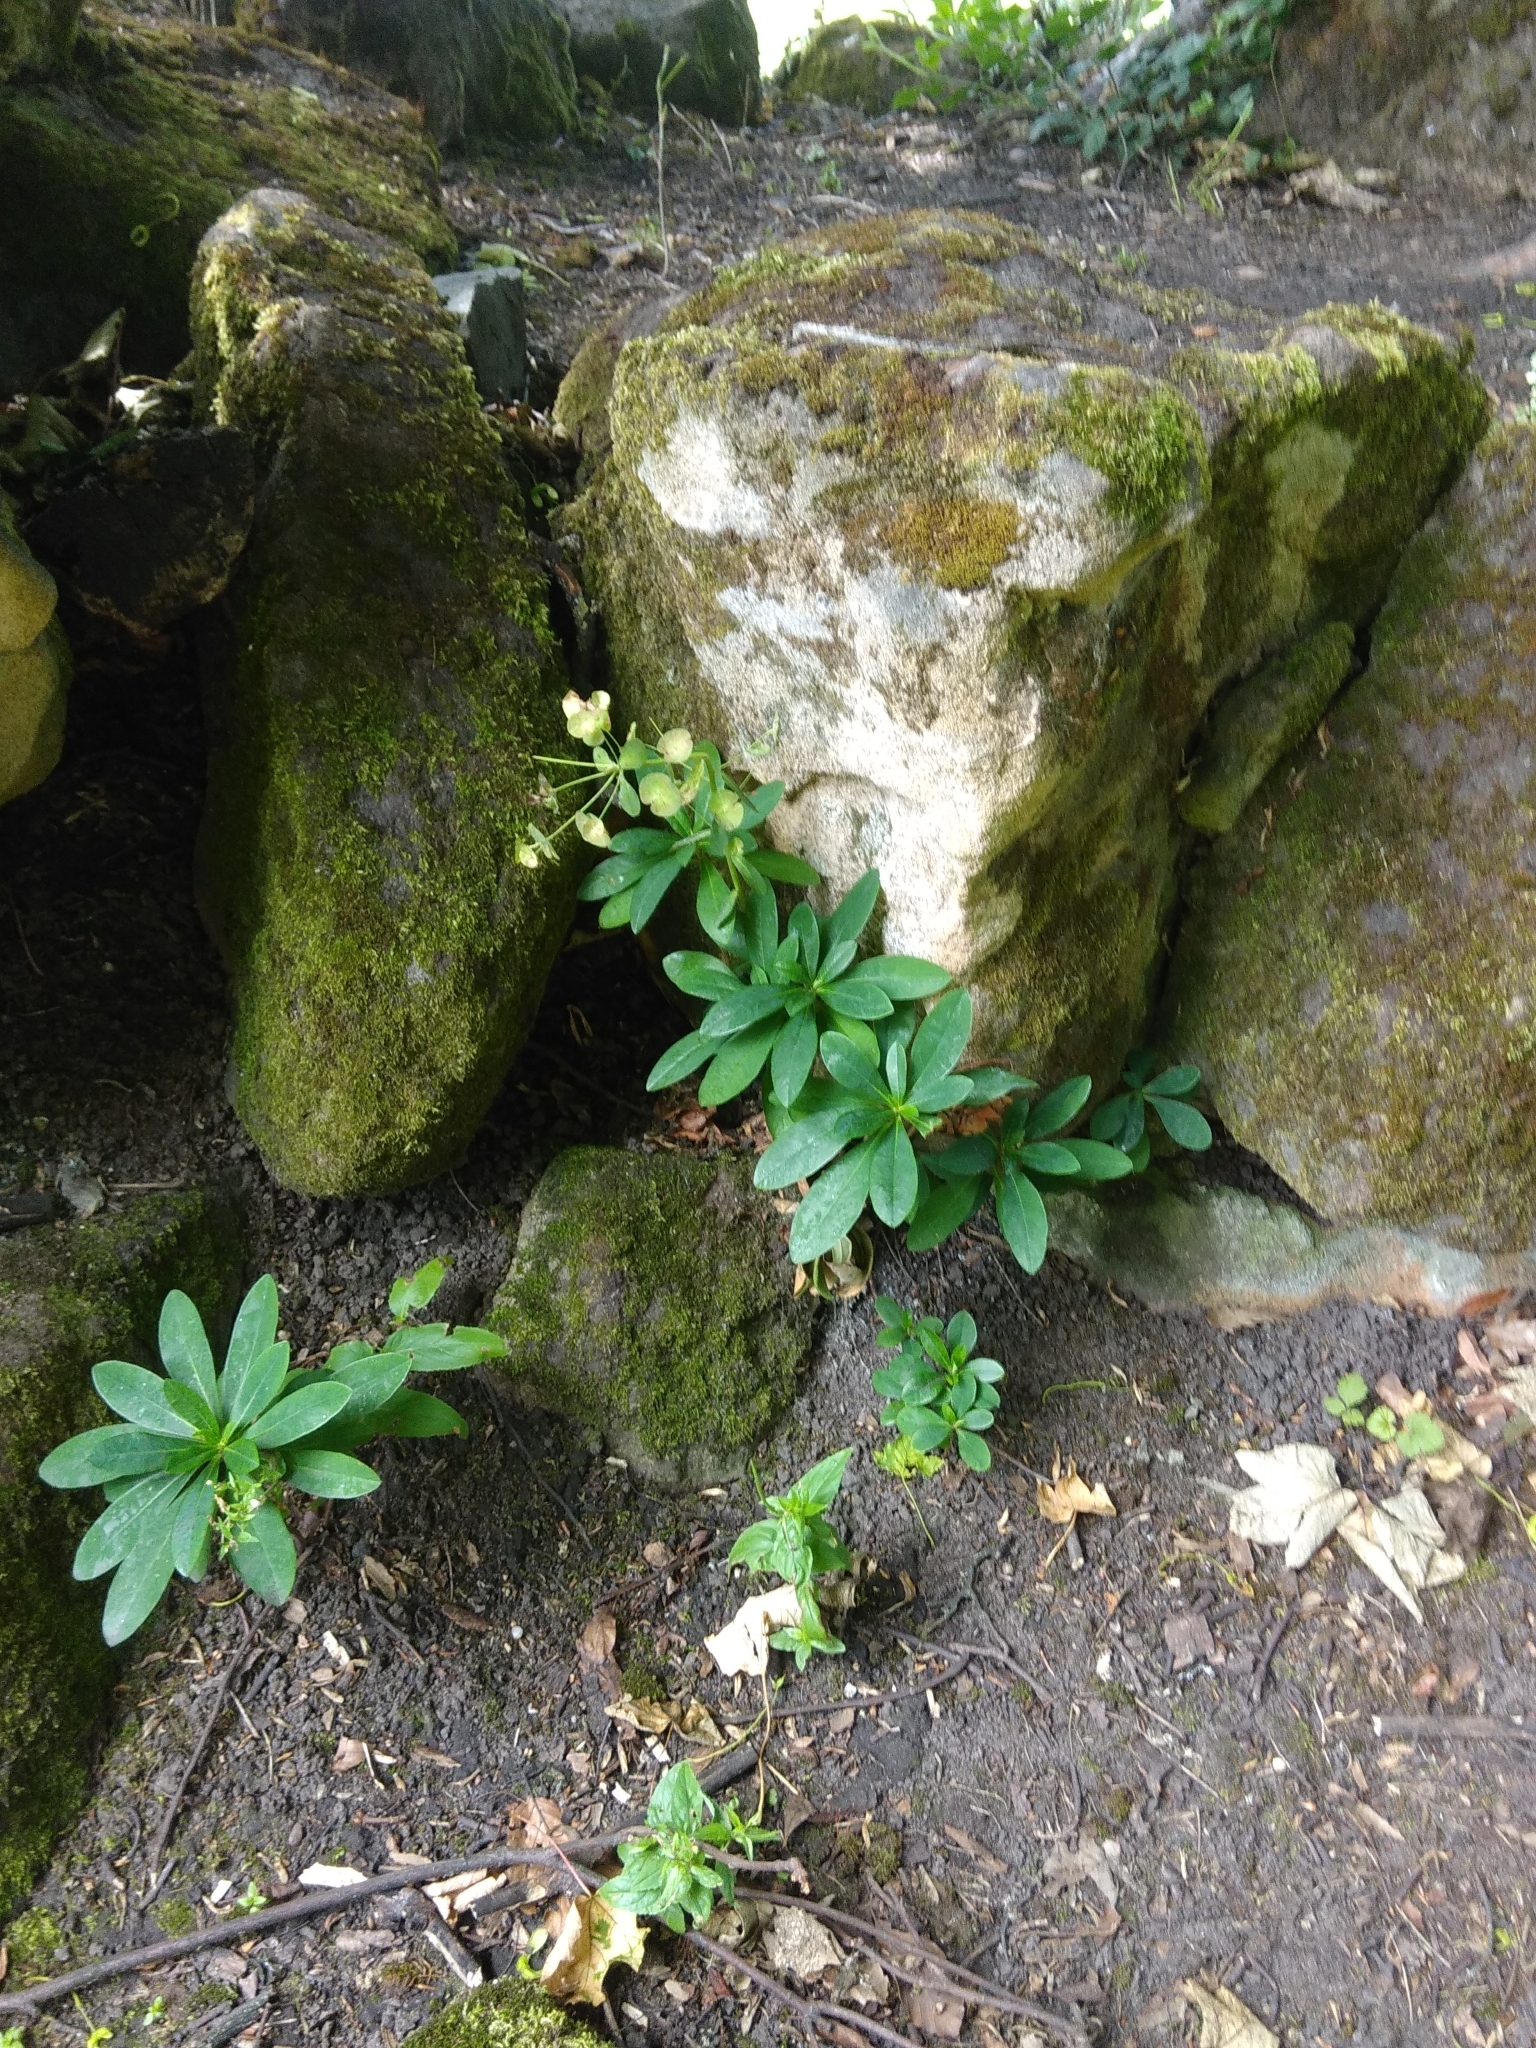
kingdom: Plantae
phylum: Tracheophyta
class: Magnoliopsida
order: Malpighiales
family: Euphorbiaceae
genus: Euphorbia
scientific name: Euphorbia amygdaloides
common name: Wood spurge
